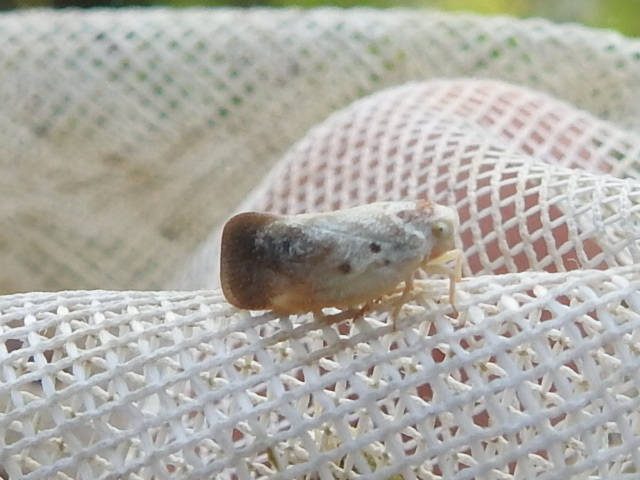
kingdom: Animalia
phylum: Arthropoda
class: Insecta
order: Hemiptera
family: Flatidae
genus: Metcalfa
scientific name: Metcalfa pruinosa
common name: Citrus flatid planthopper
